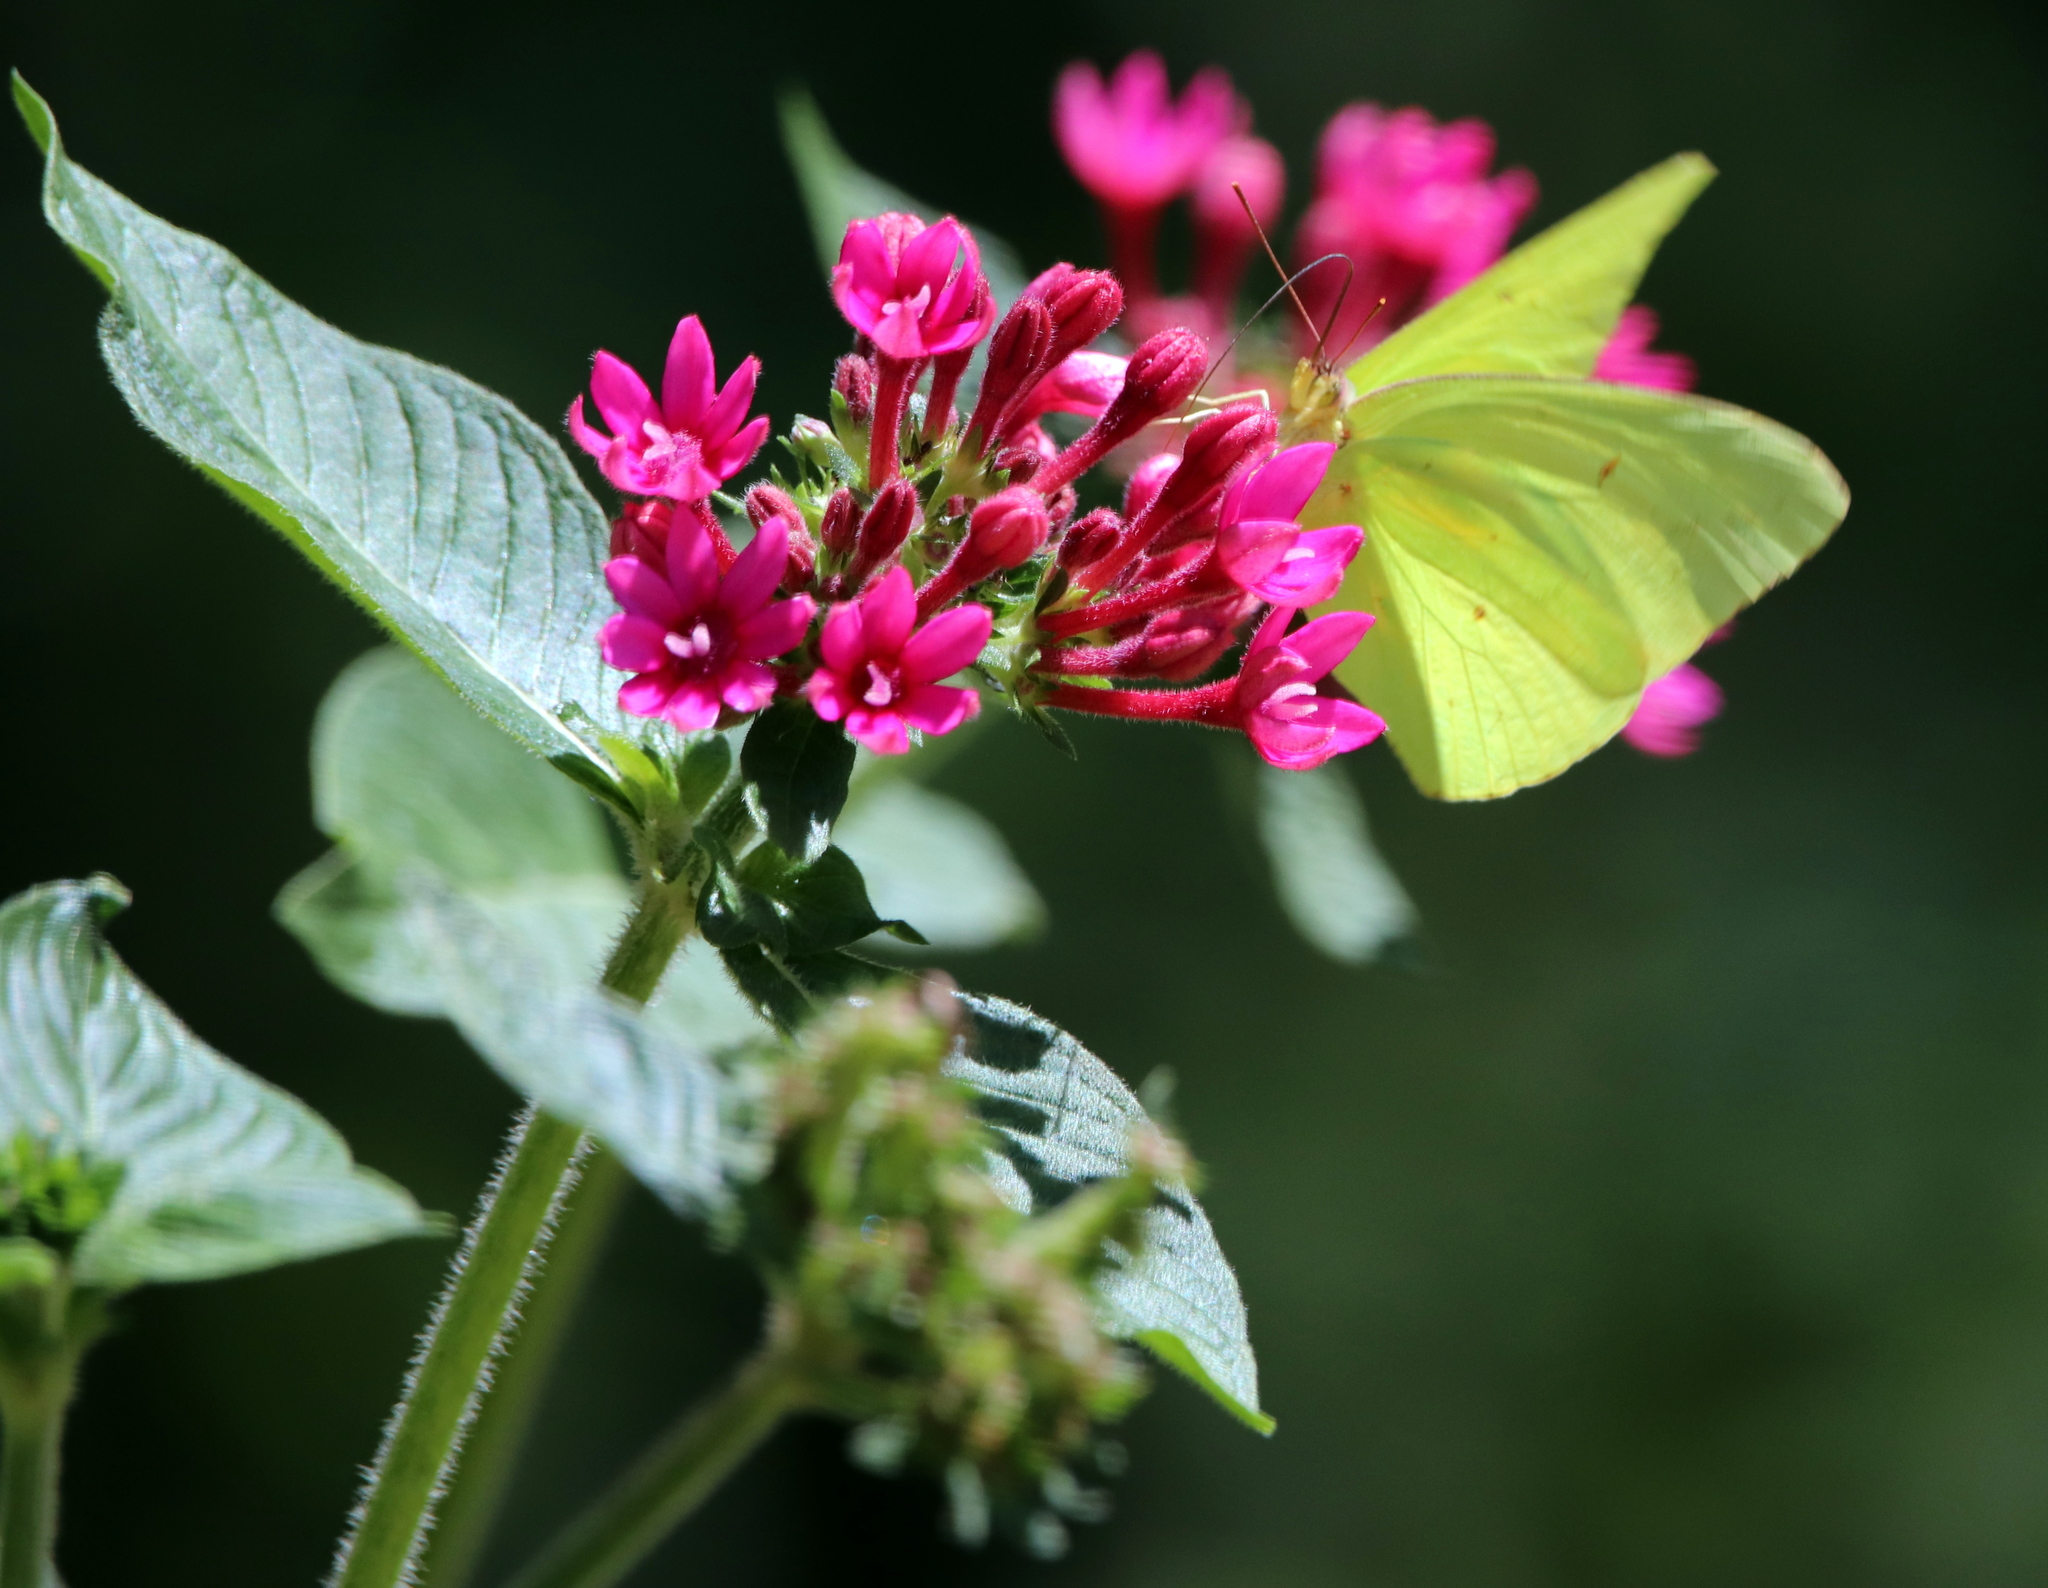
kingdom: Animalia
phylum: Arthropoda
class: Insecta
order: Lepidoptera
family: Pieridae
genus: Phoebis
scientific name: Phoebis sennae
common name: Cloudless sulphur
